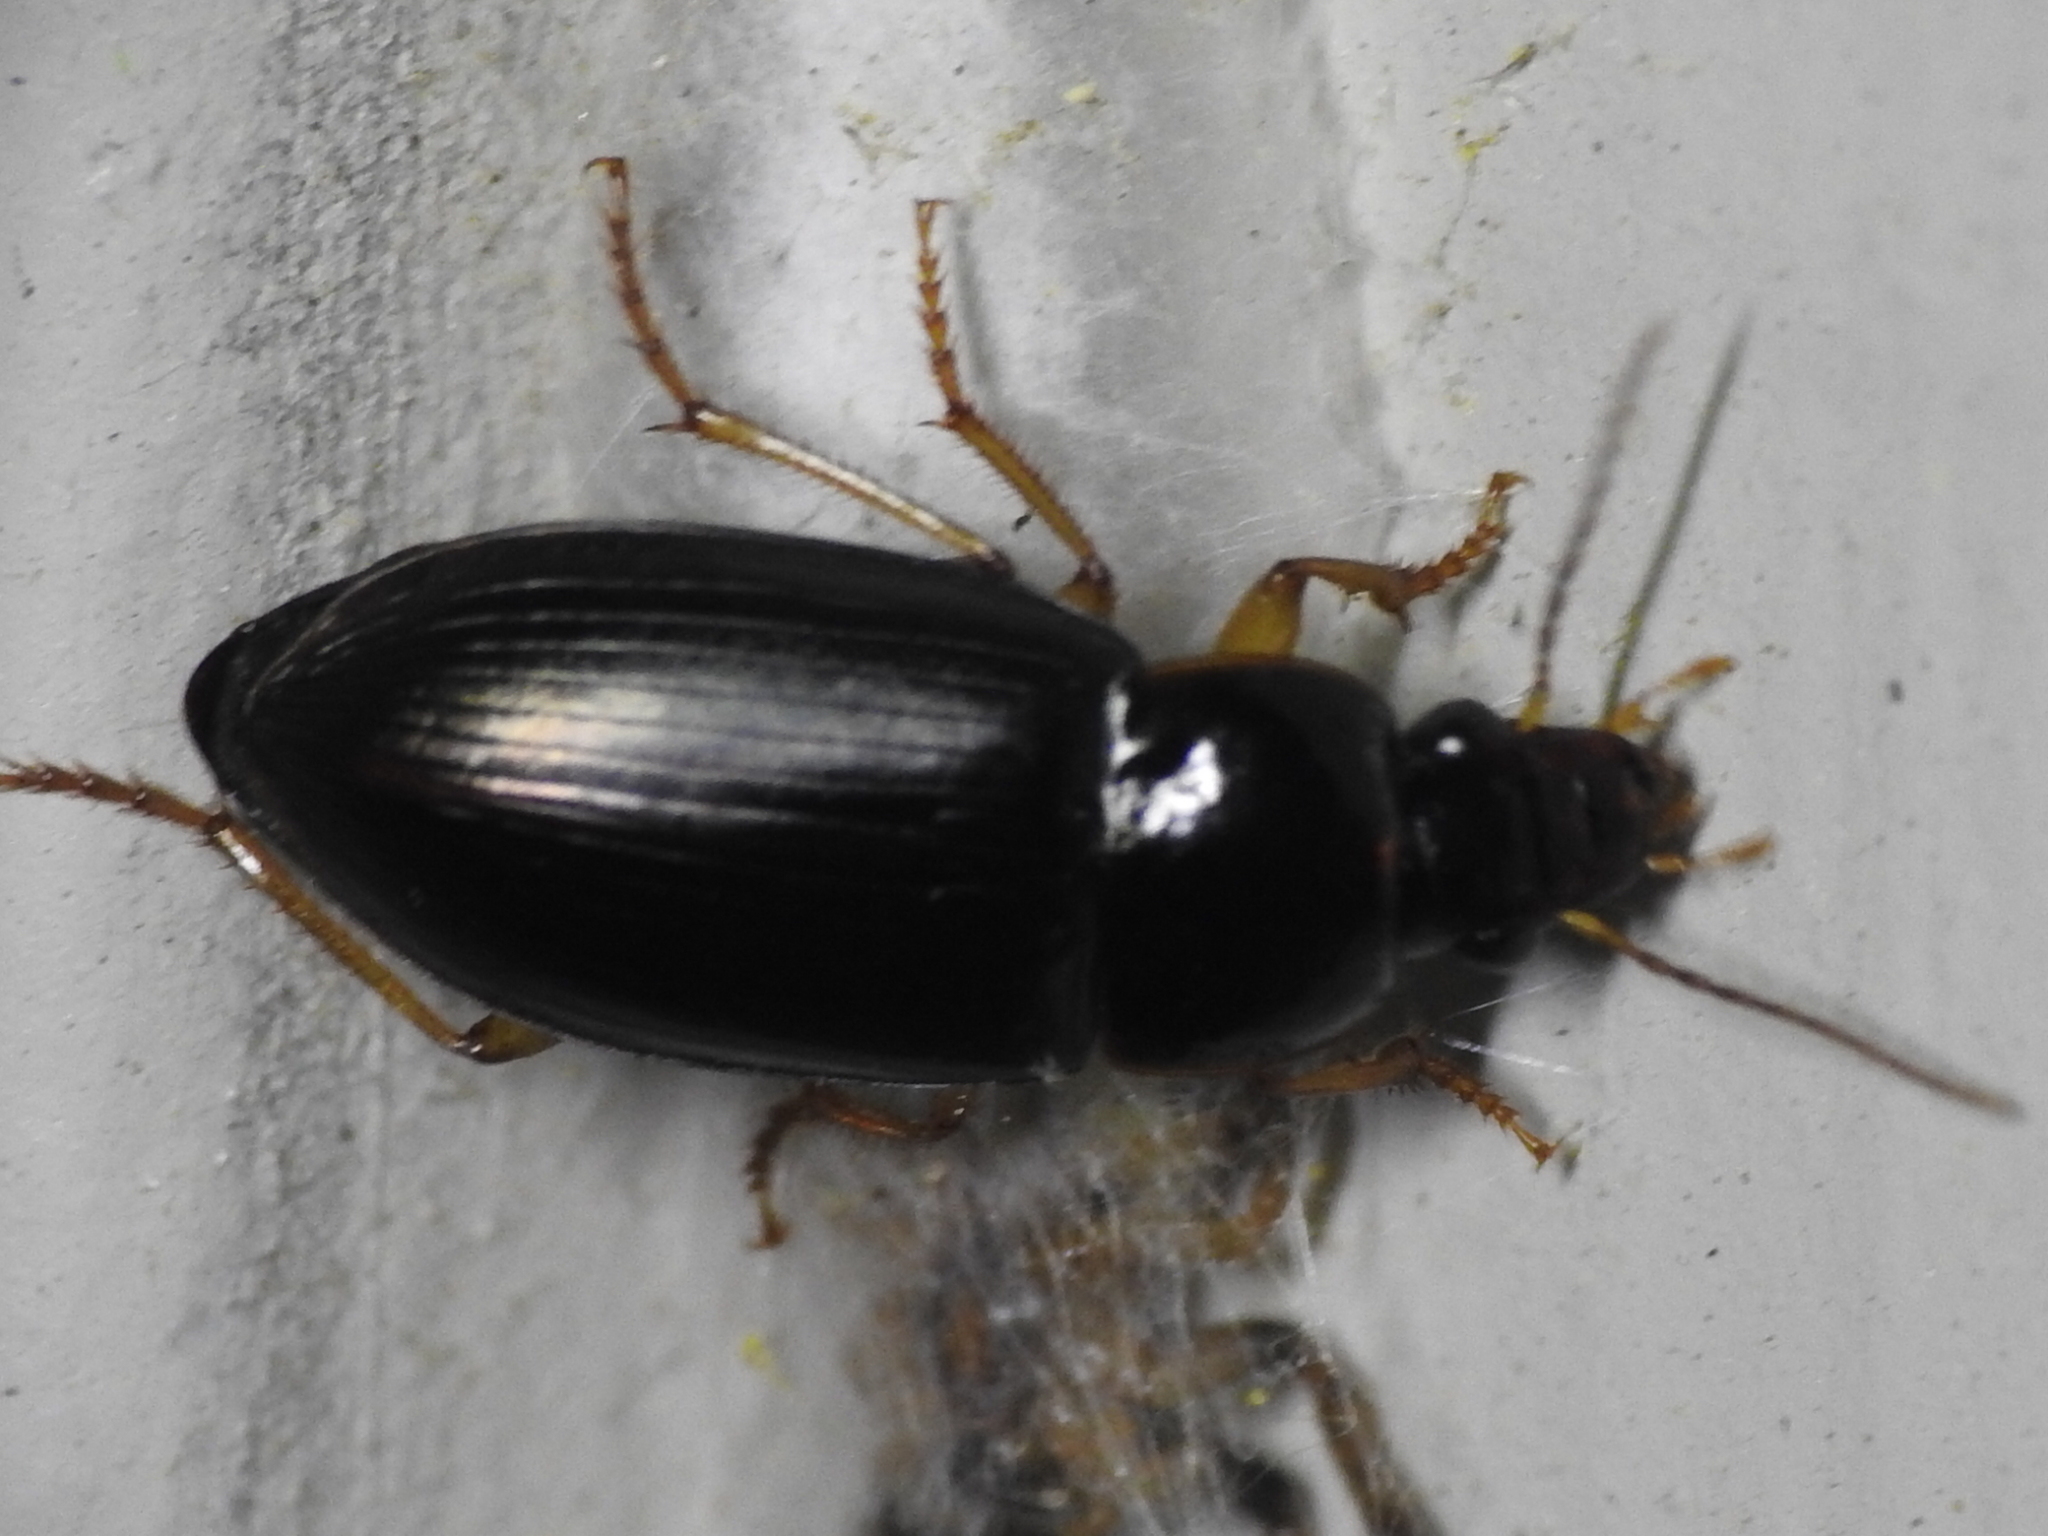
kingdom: Animalia
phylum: Arthropoda
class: Insecta
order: Coleoptera
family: Carabidae
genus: Notiobia
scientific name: Notiobia terminata
